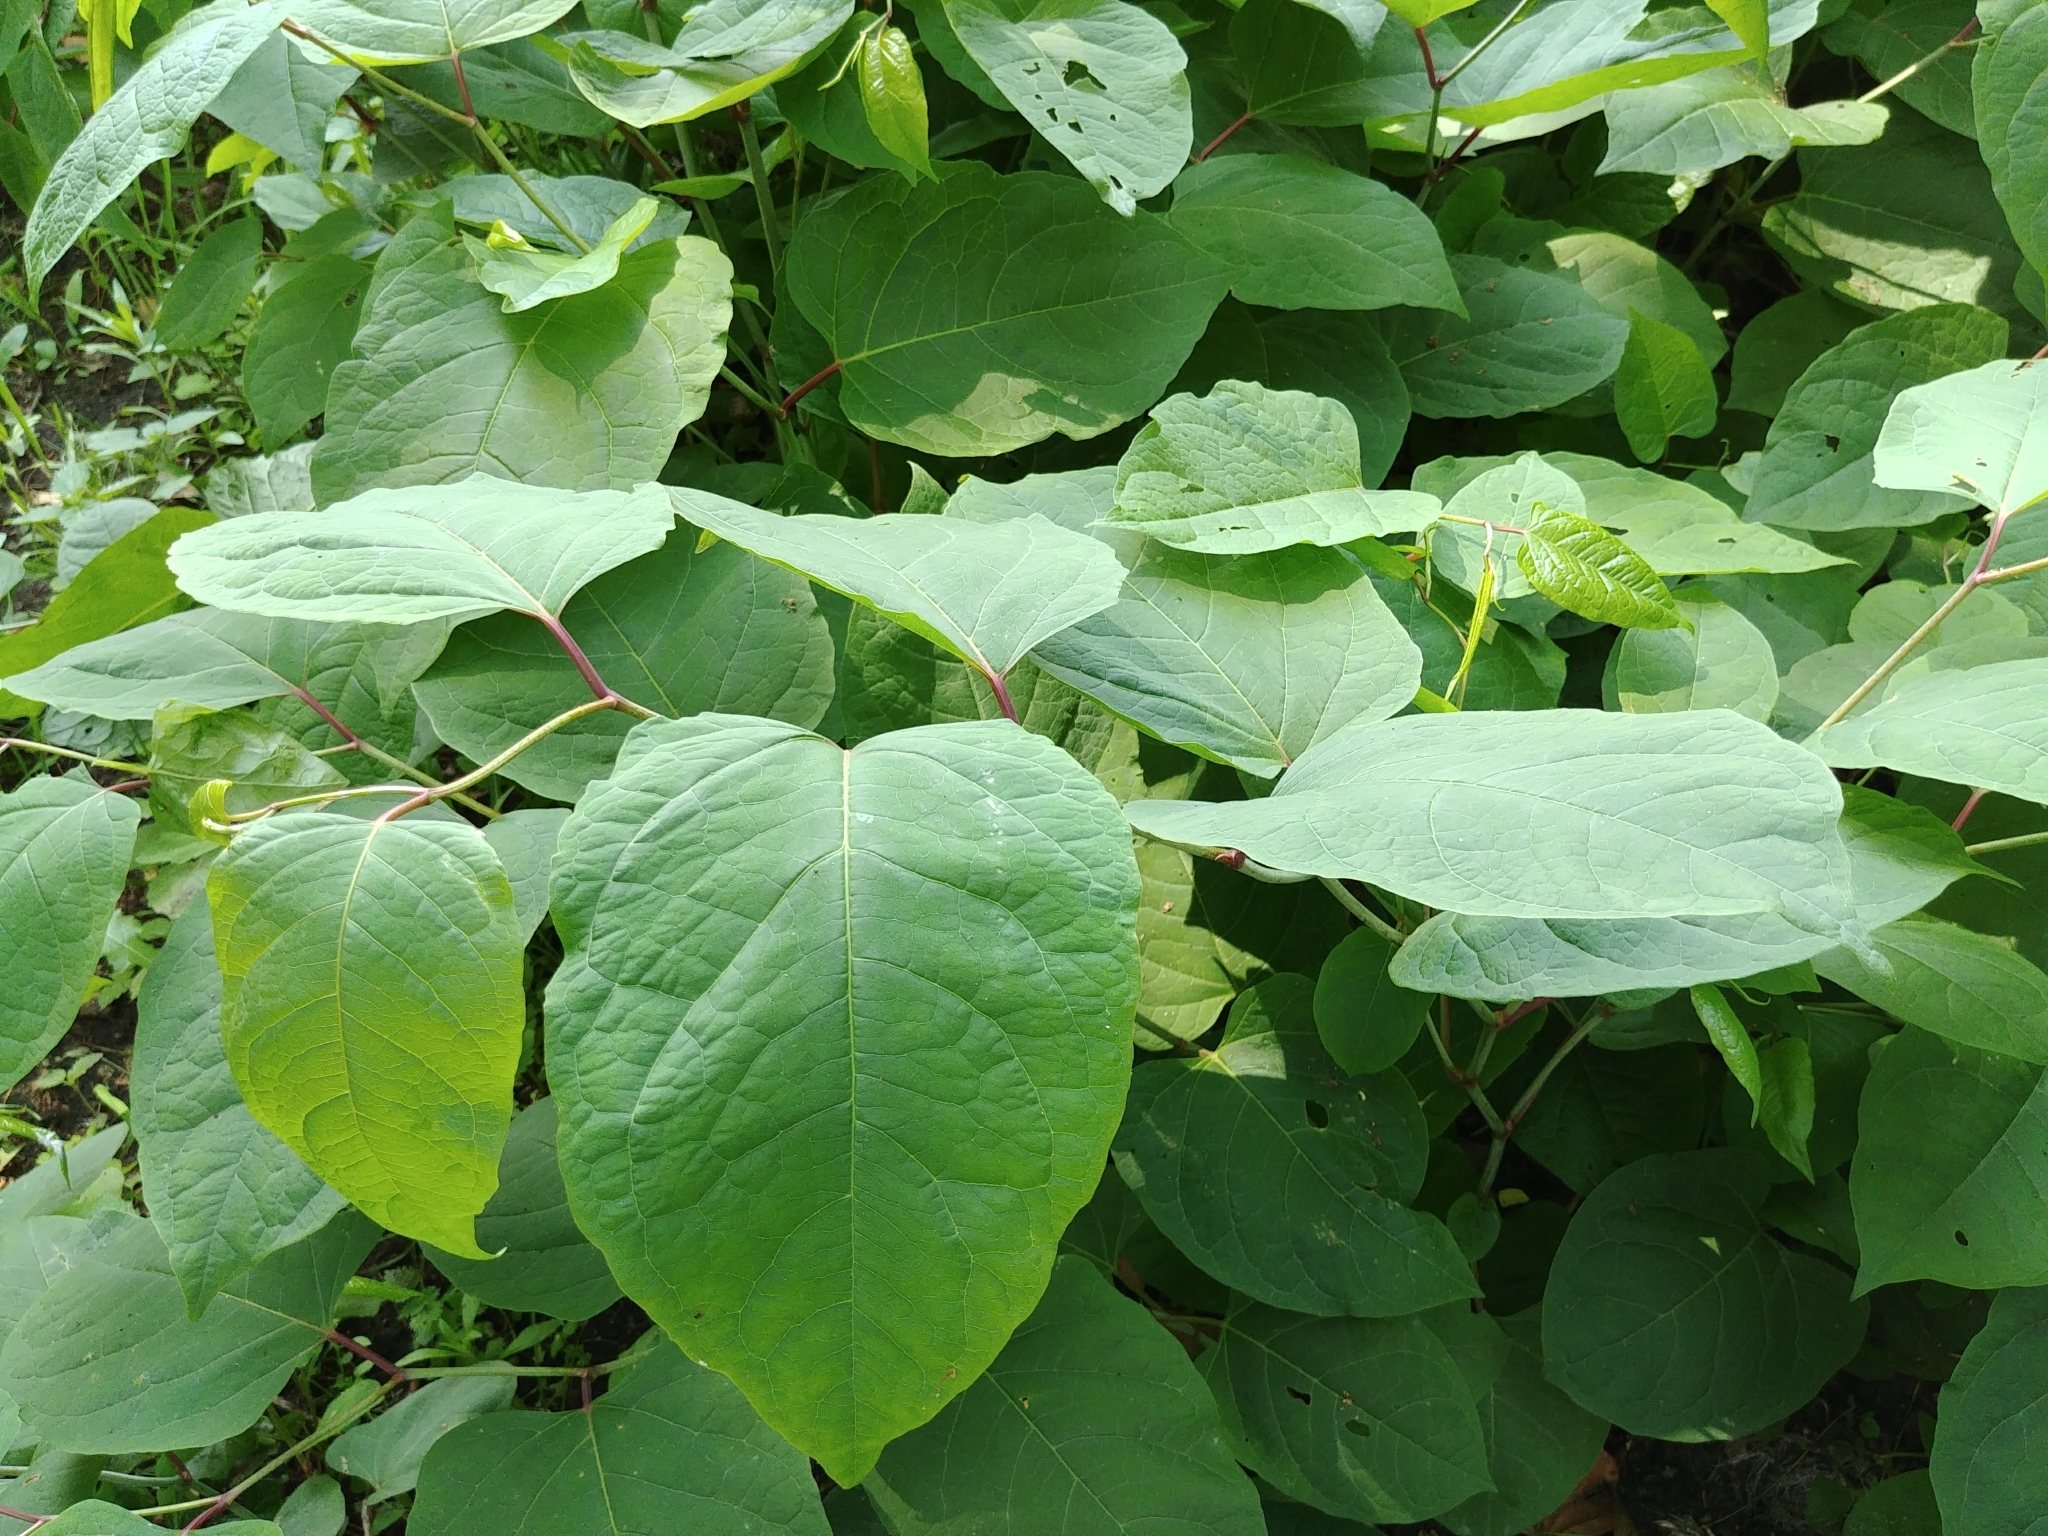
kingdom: Plantae
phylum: Tracheophyta
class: Magnoliopsida
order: Caryophyllales
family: Polygonaceae
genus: Reynoutria
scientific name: Reynoutria japonica
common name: Japanese knotweed
